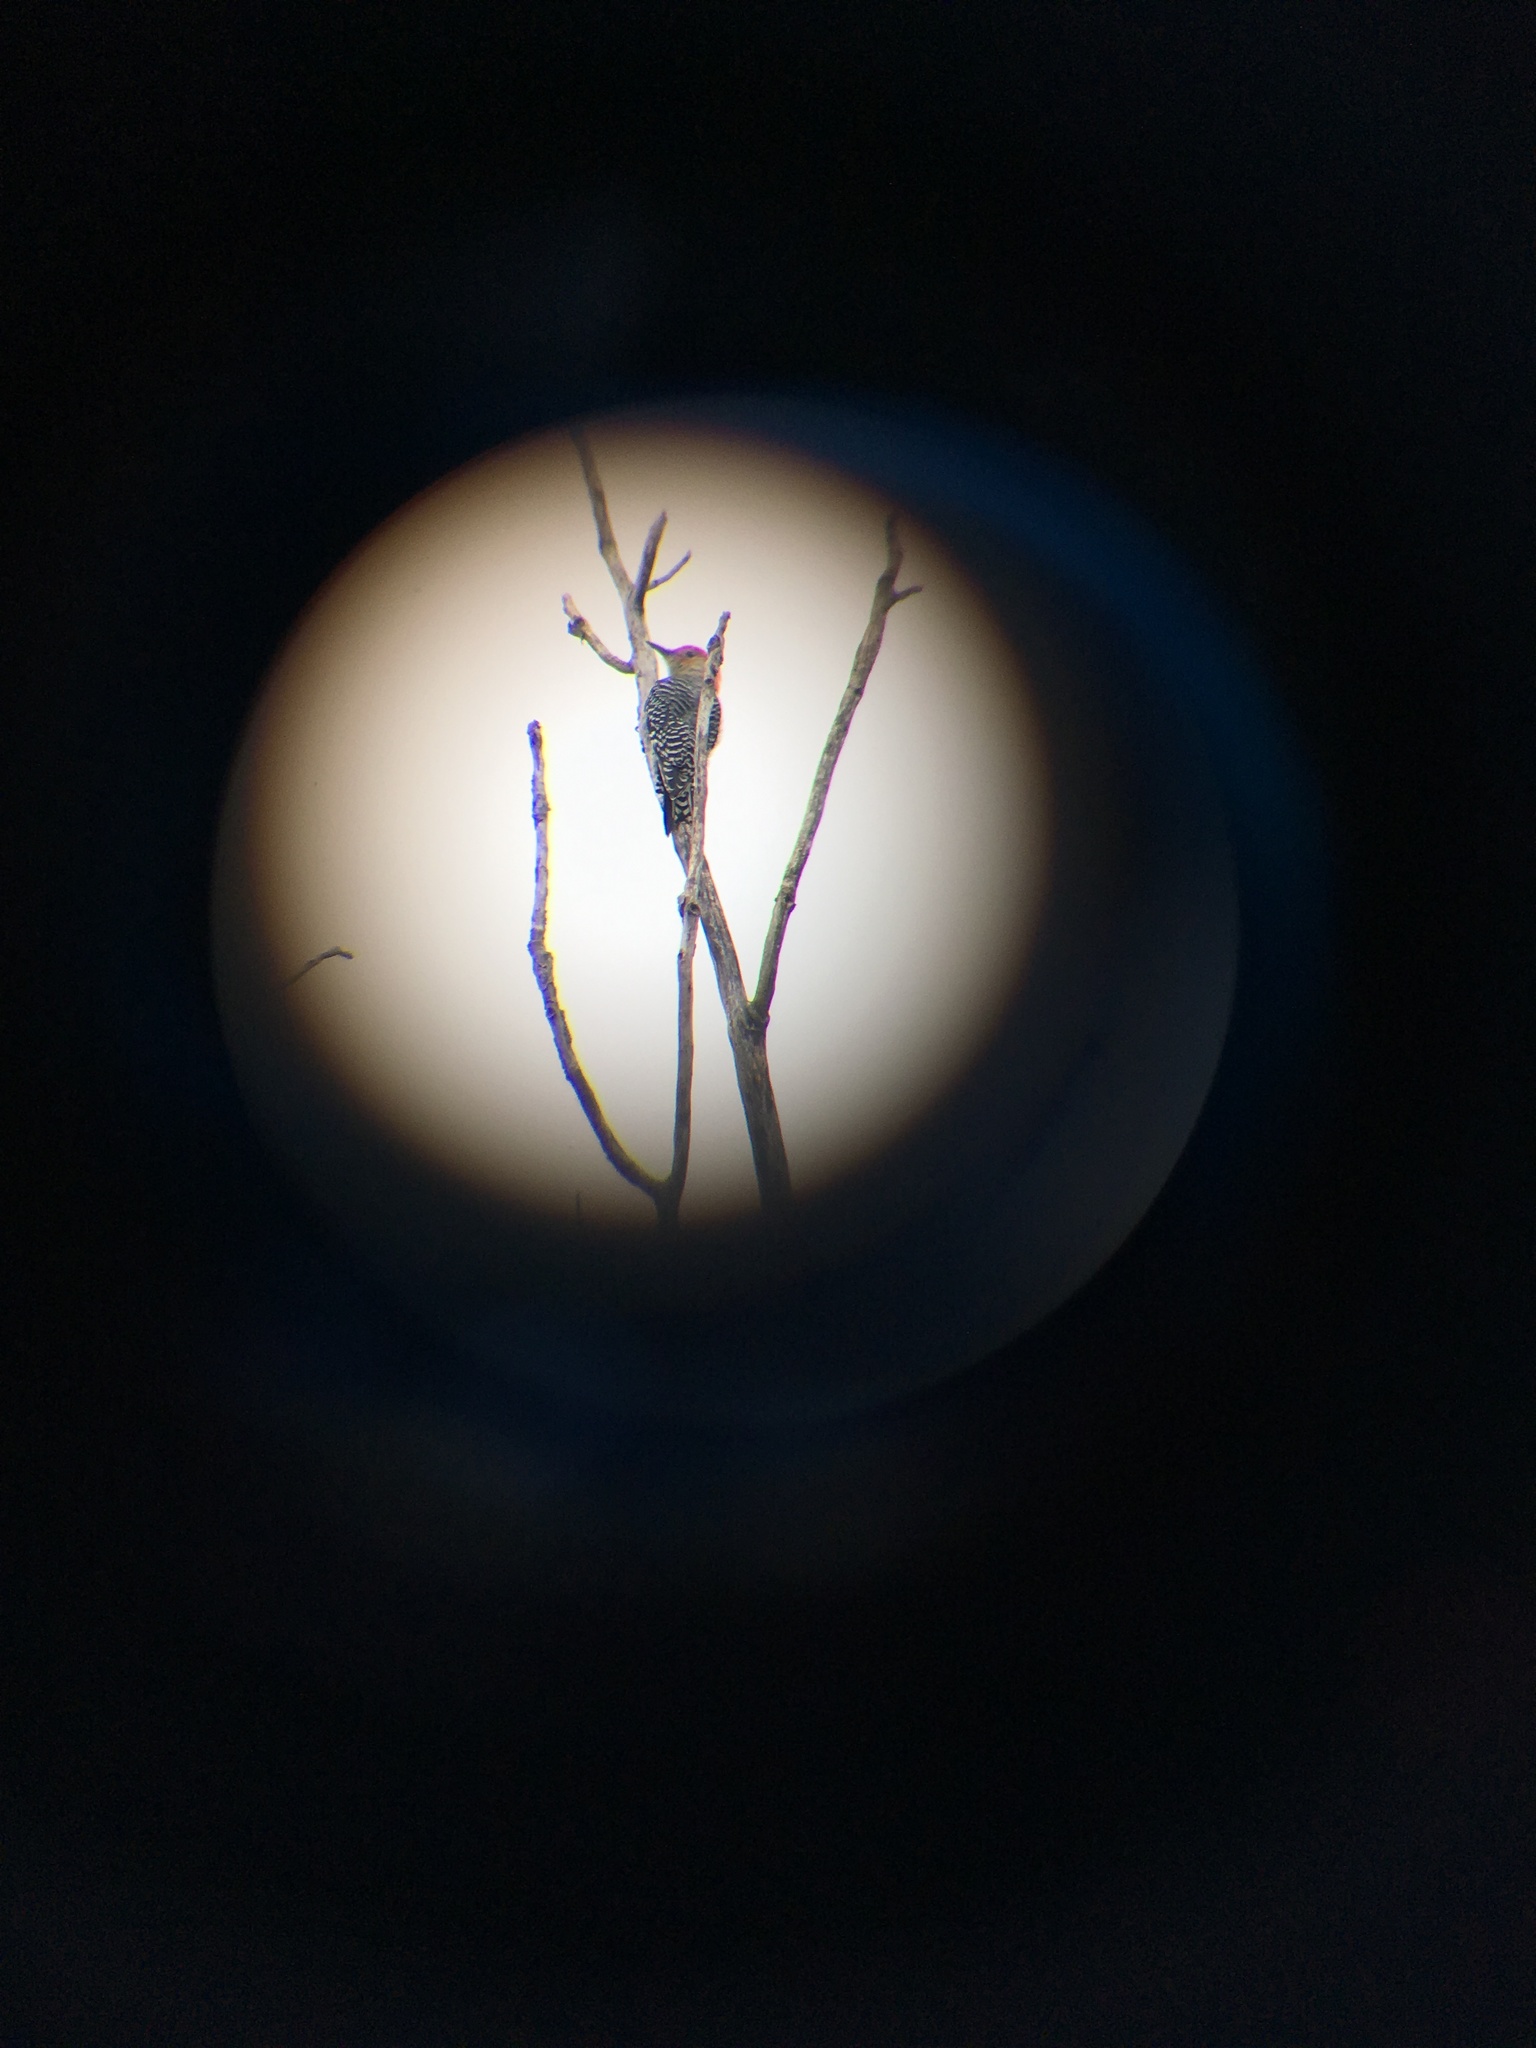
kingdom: Animalia
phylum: Chordata
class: Aves
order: Piciformes
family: Picidae
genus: Melanerpes
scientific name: Melanerpes carolinus
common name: Red-bellied woodpecker
